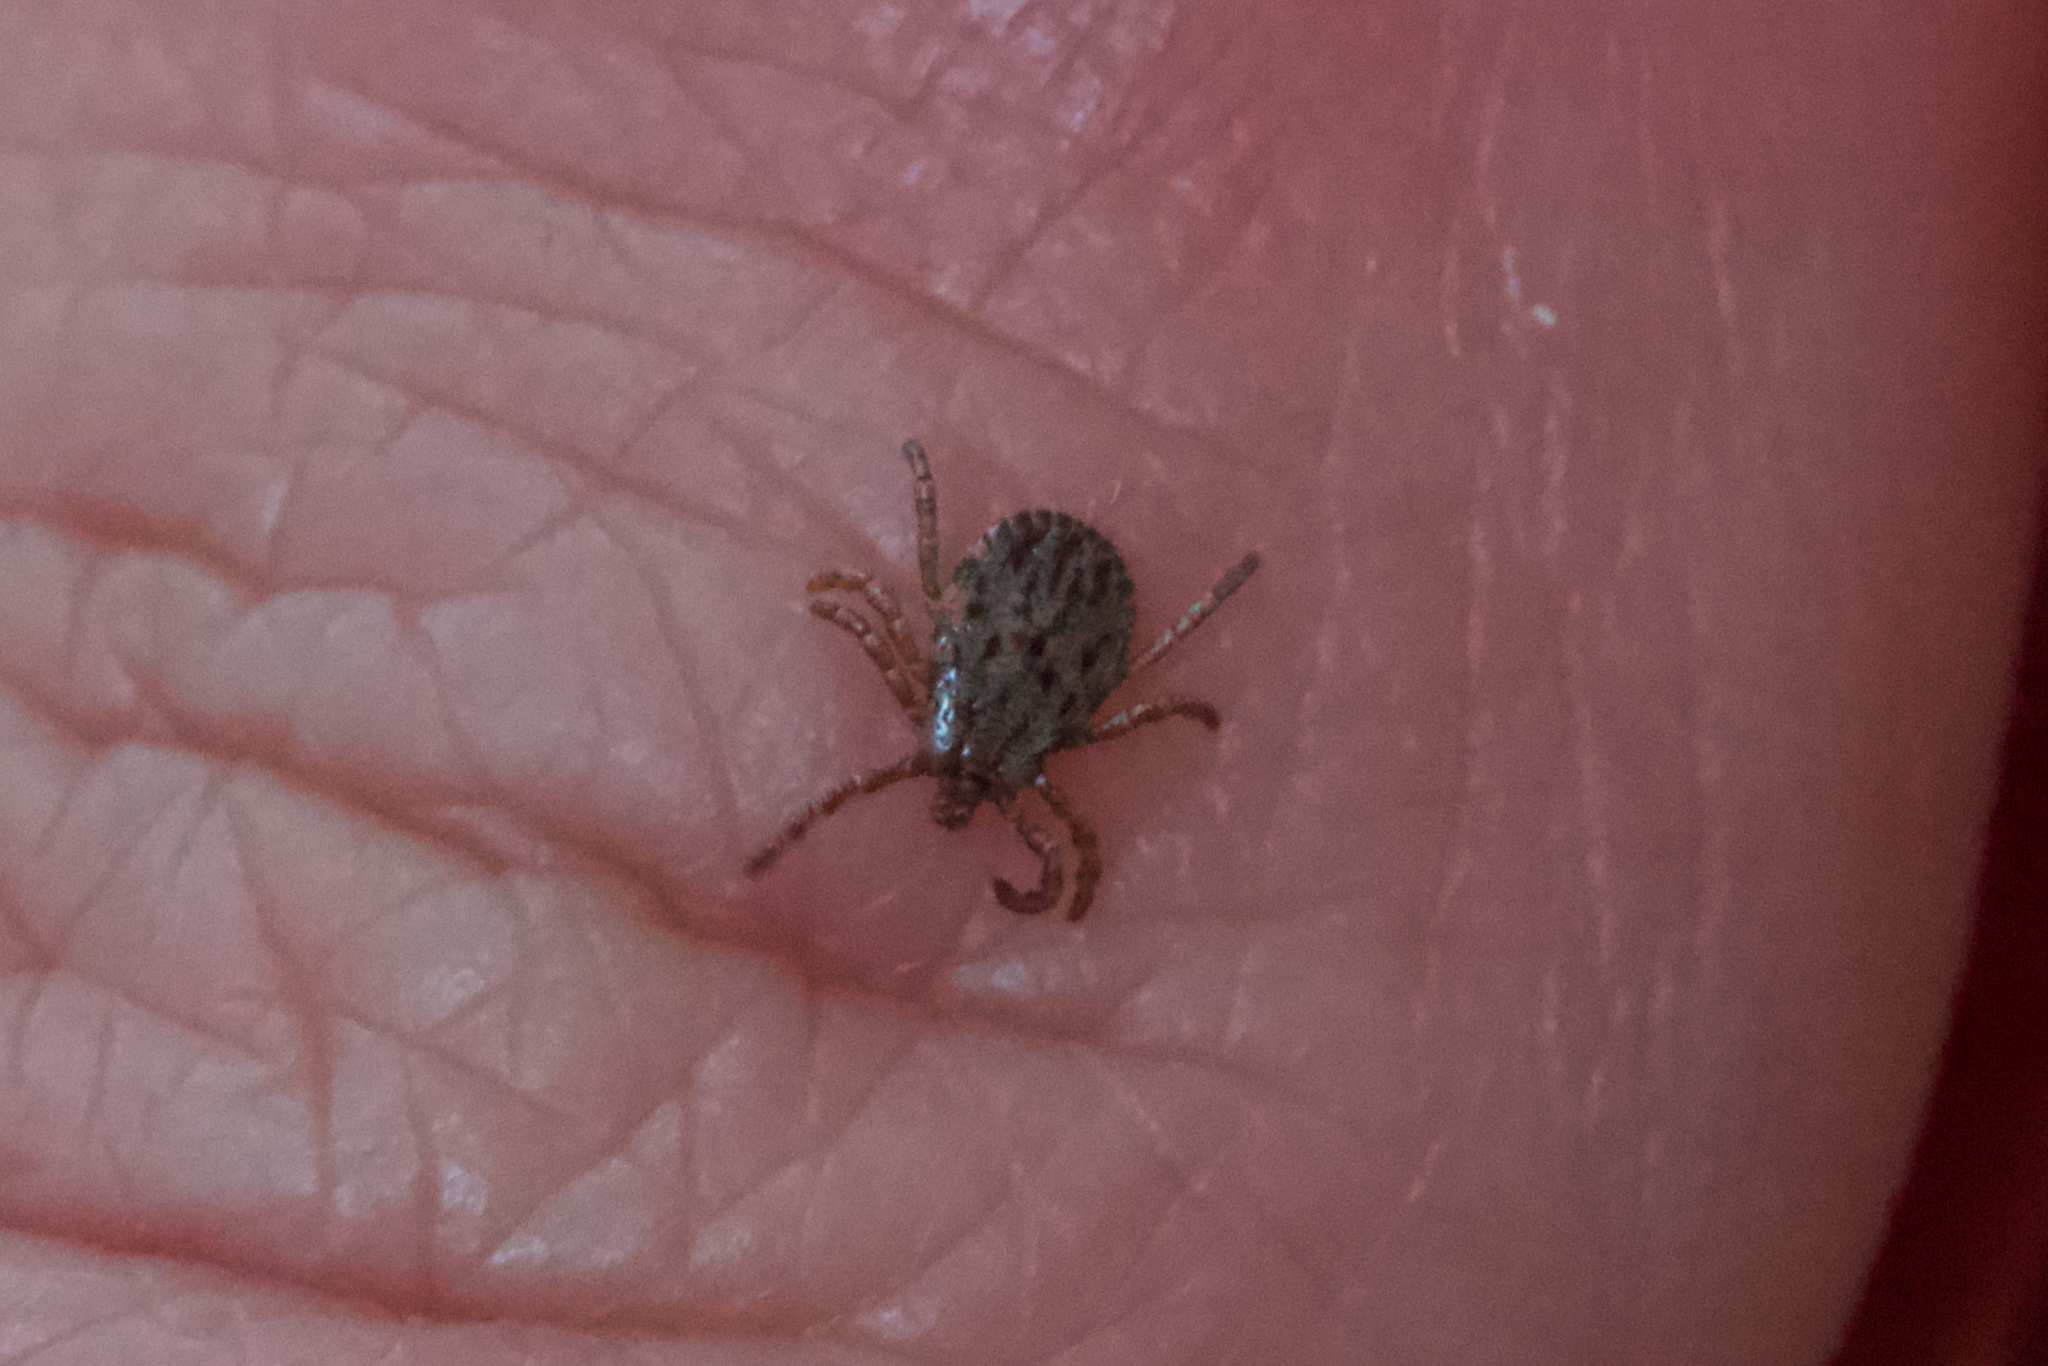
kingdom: Animalia
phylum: Arthropoda
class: Arachnida
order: Ixodida
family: Ixodidae
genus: Dermacentor
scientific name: Dermacentor occidentalis
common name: Net tick
